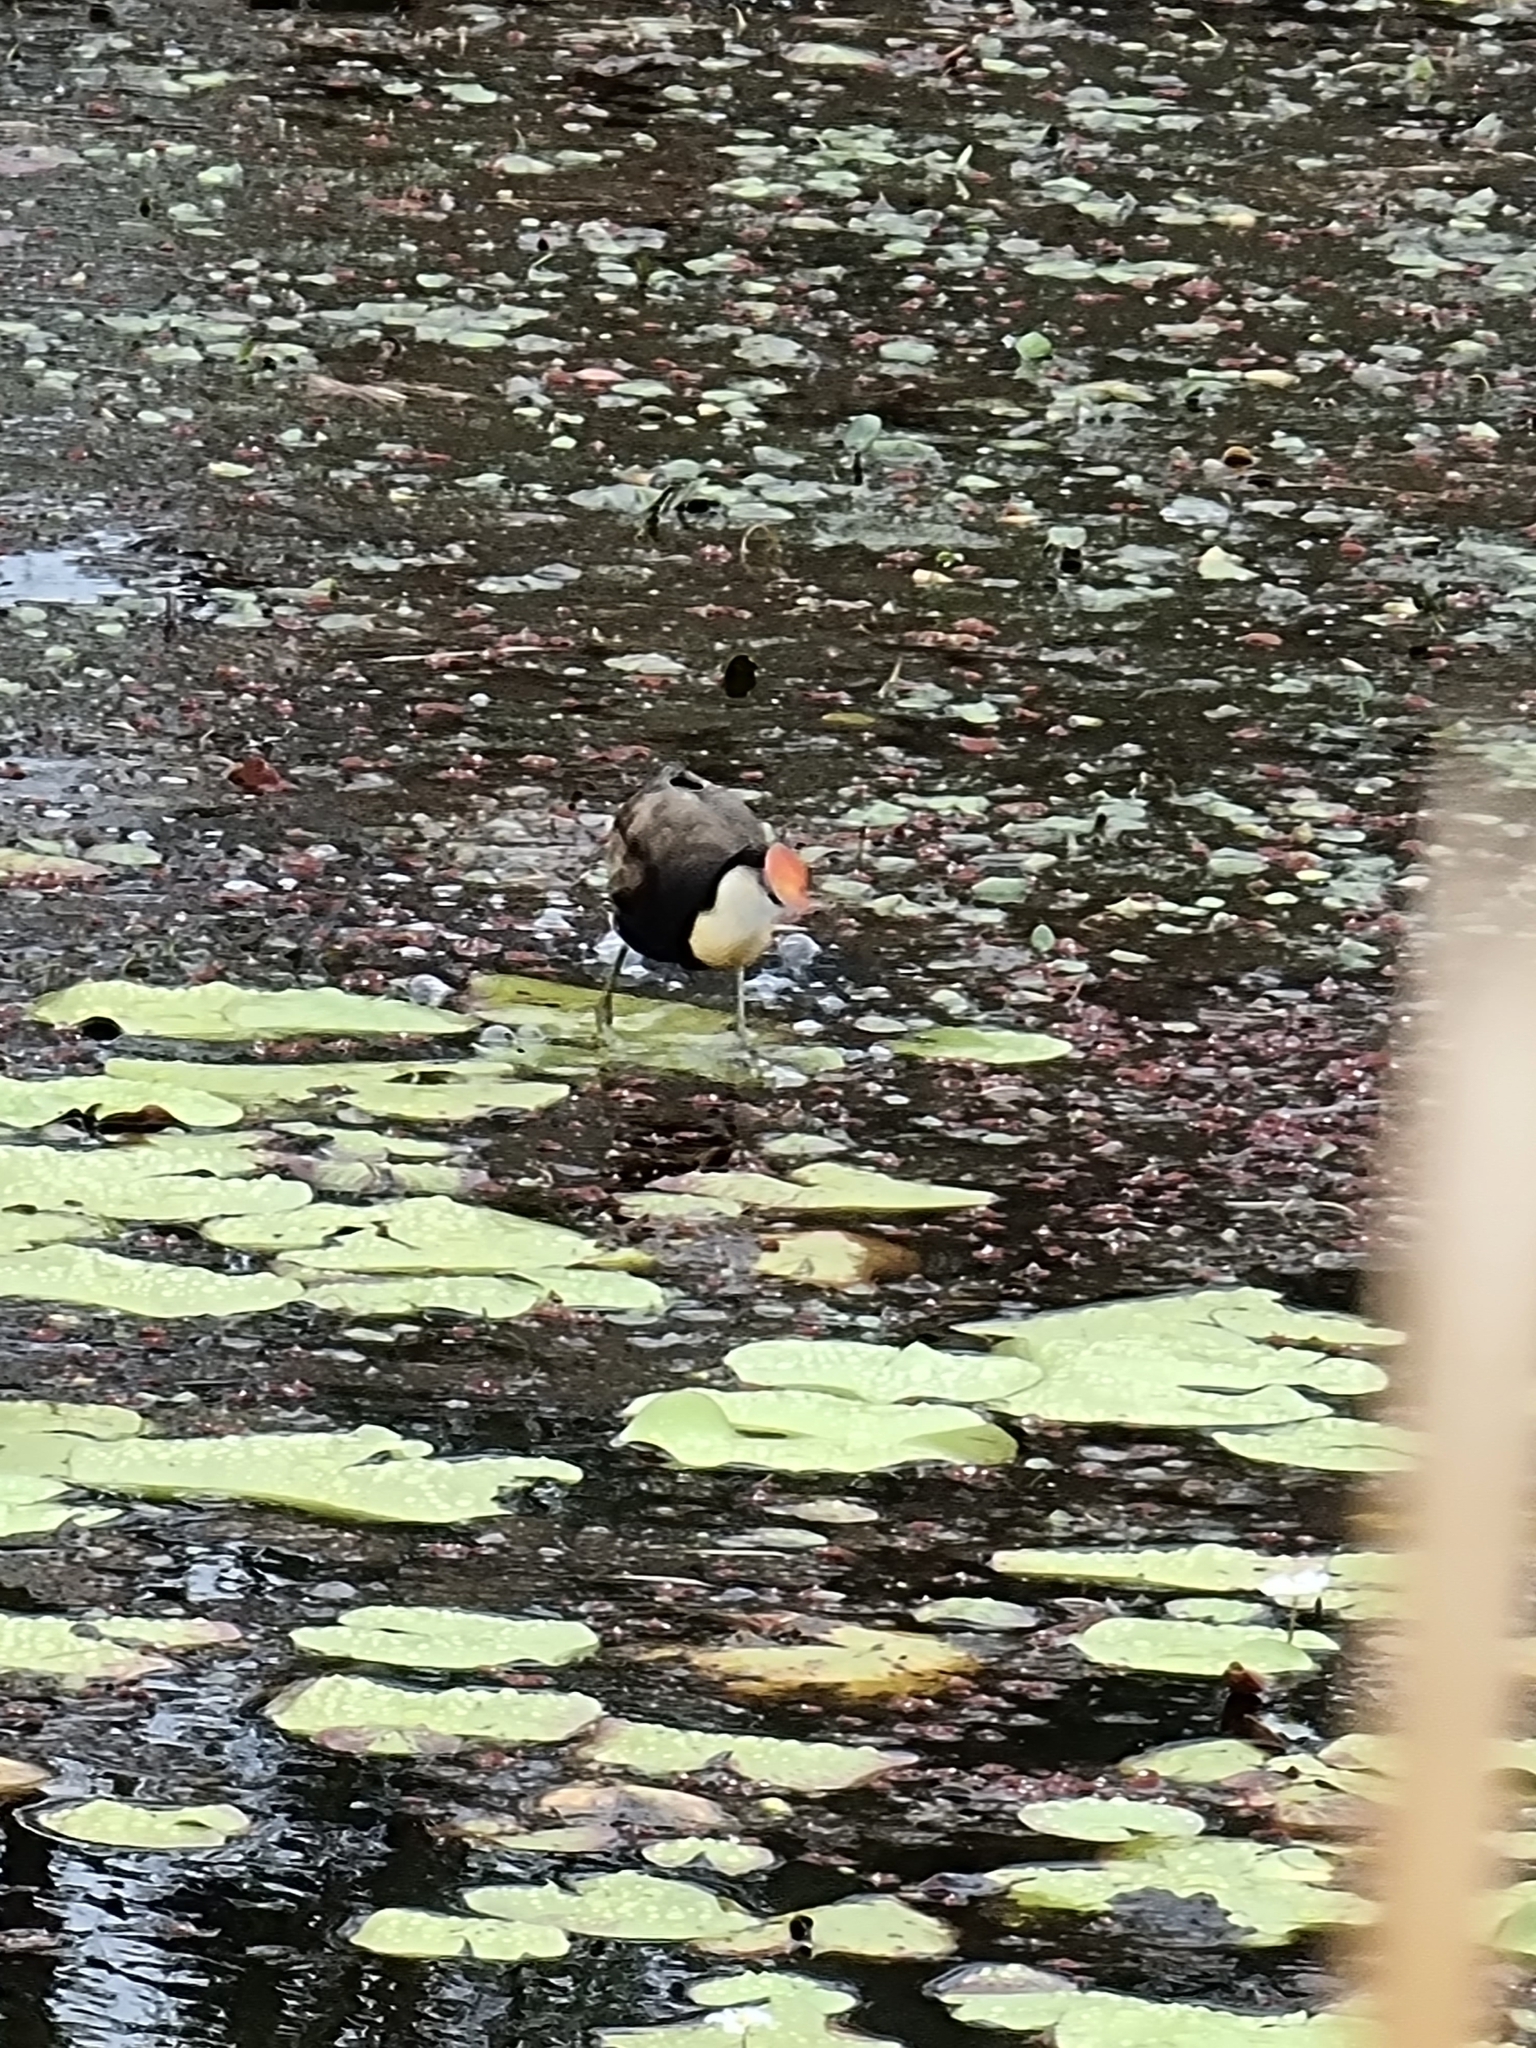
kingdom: Animalia
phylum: Chordata
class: Aves
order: Charadriiformes
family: Jacanidae
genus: Irediparra
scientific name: Irediparra gallinacea
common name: Comb-crested jacana
